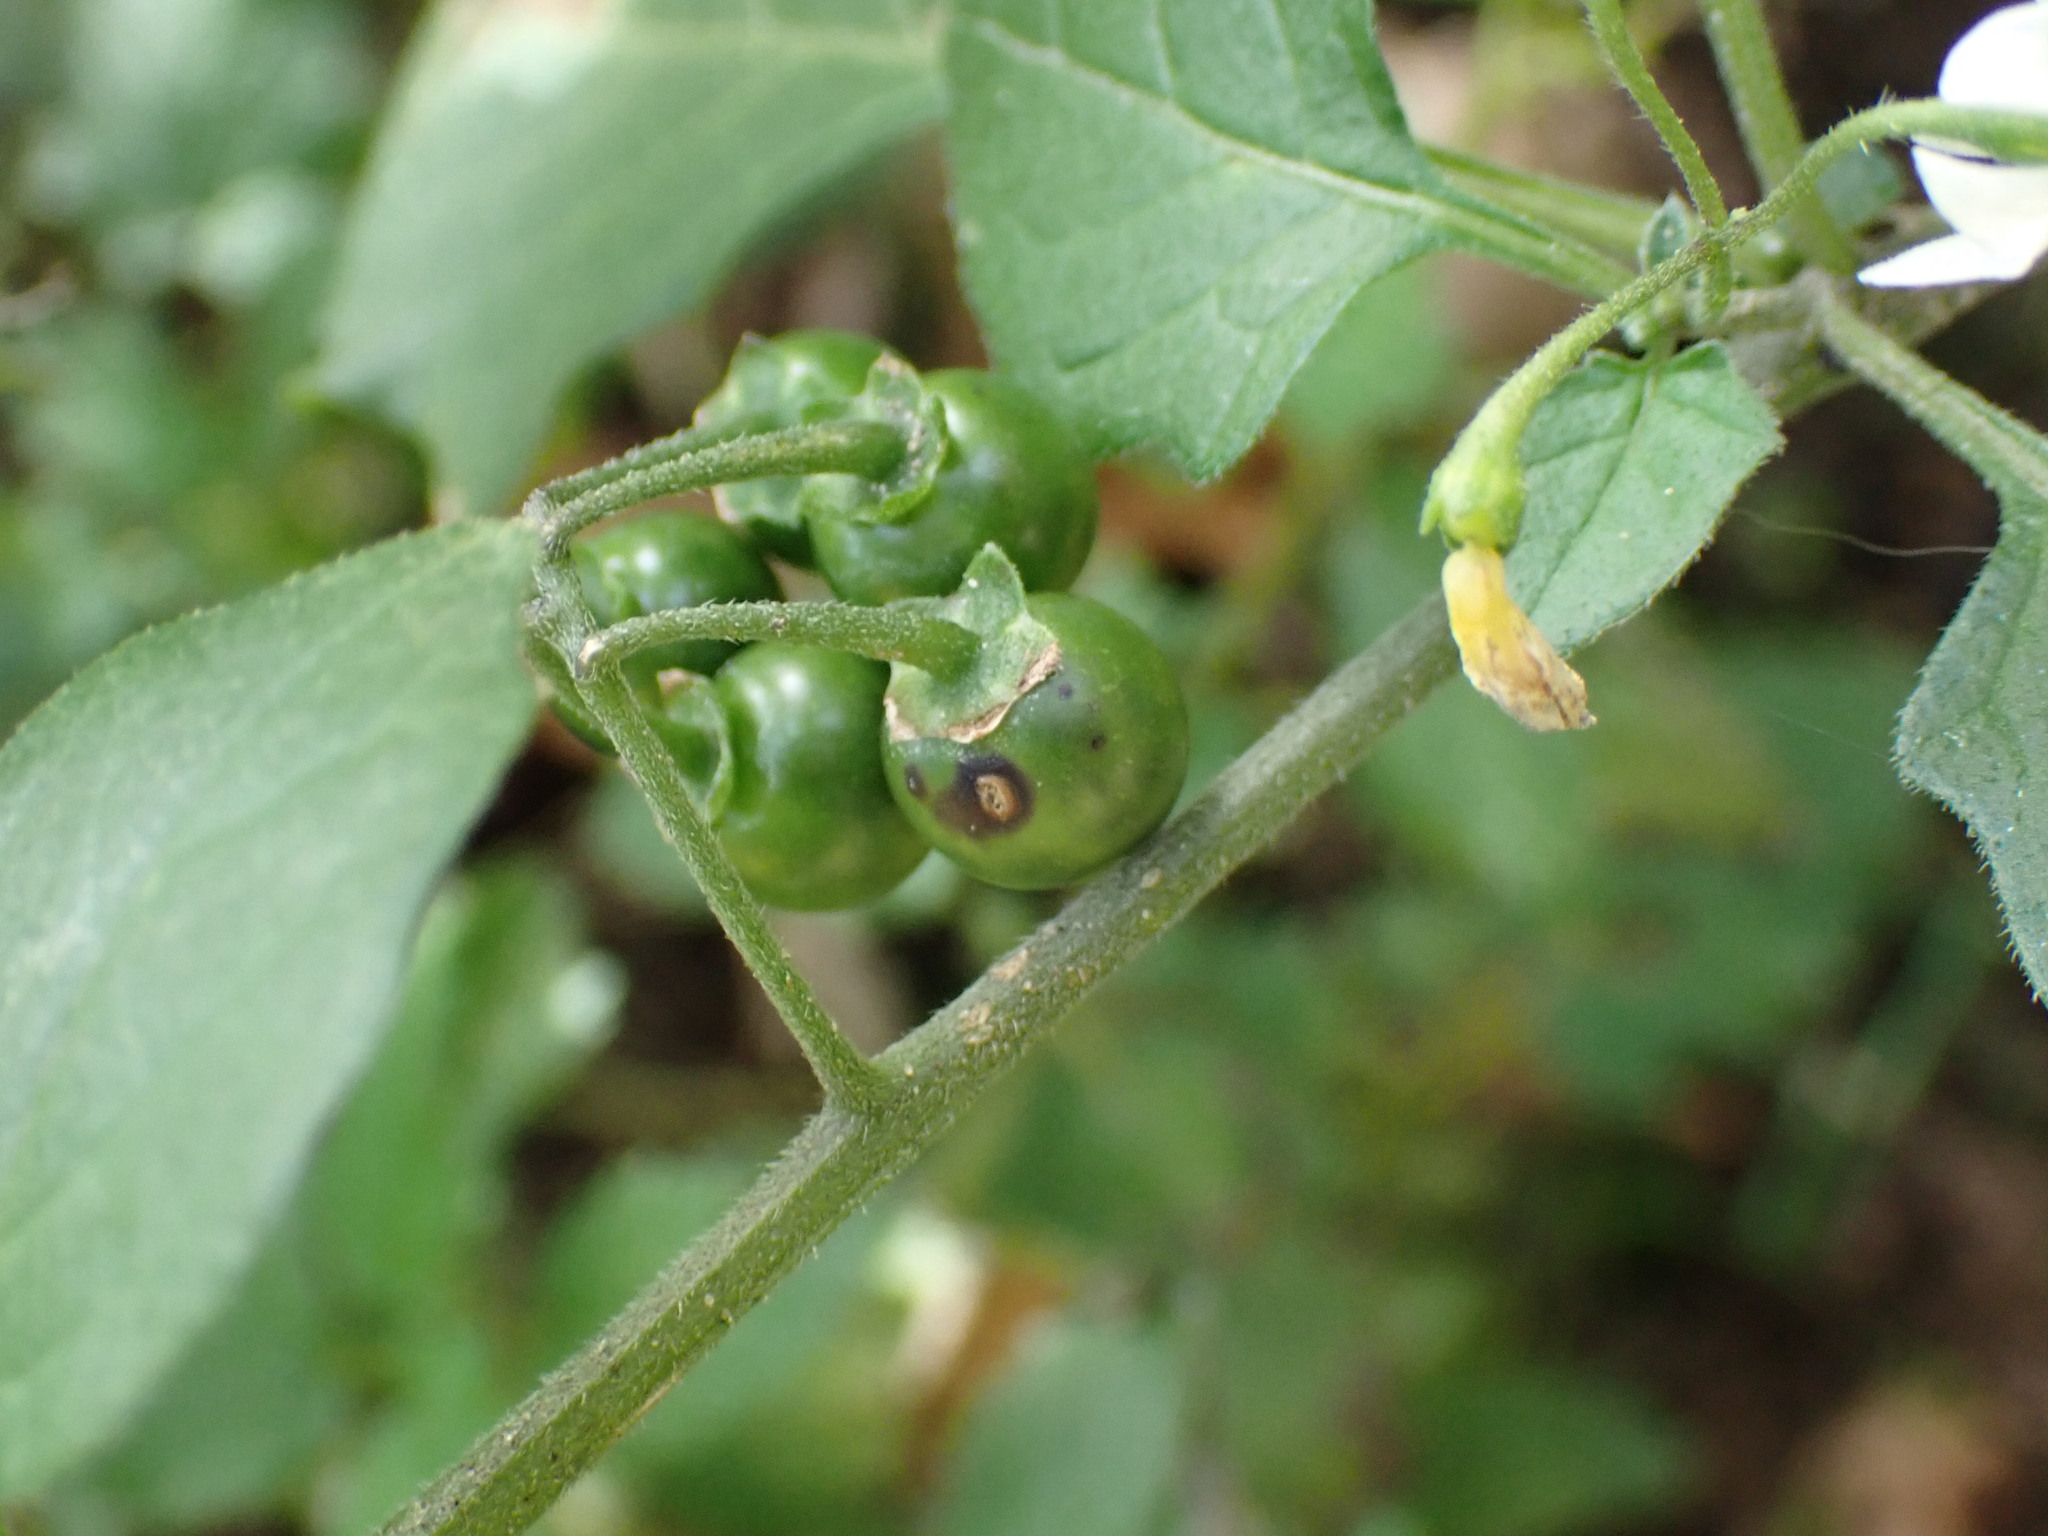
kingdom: Plantae
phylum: Tracheophyta
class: Magnoliopsida
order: Solanales
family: Solanaceae
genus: Solanum
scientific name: Solanum nigrum
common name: Black nightshade
